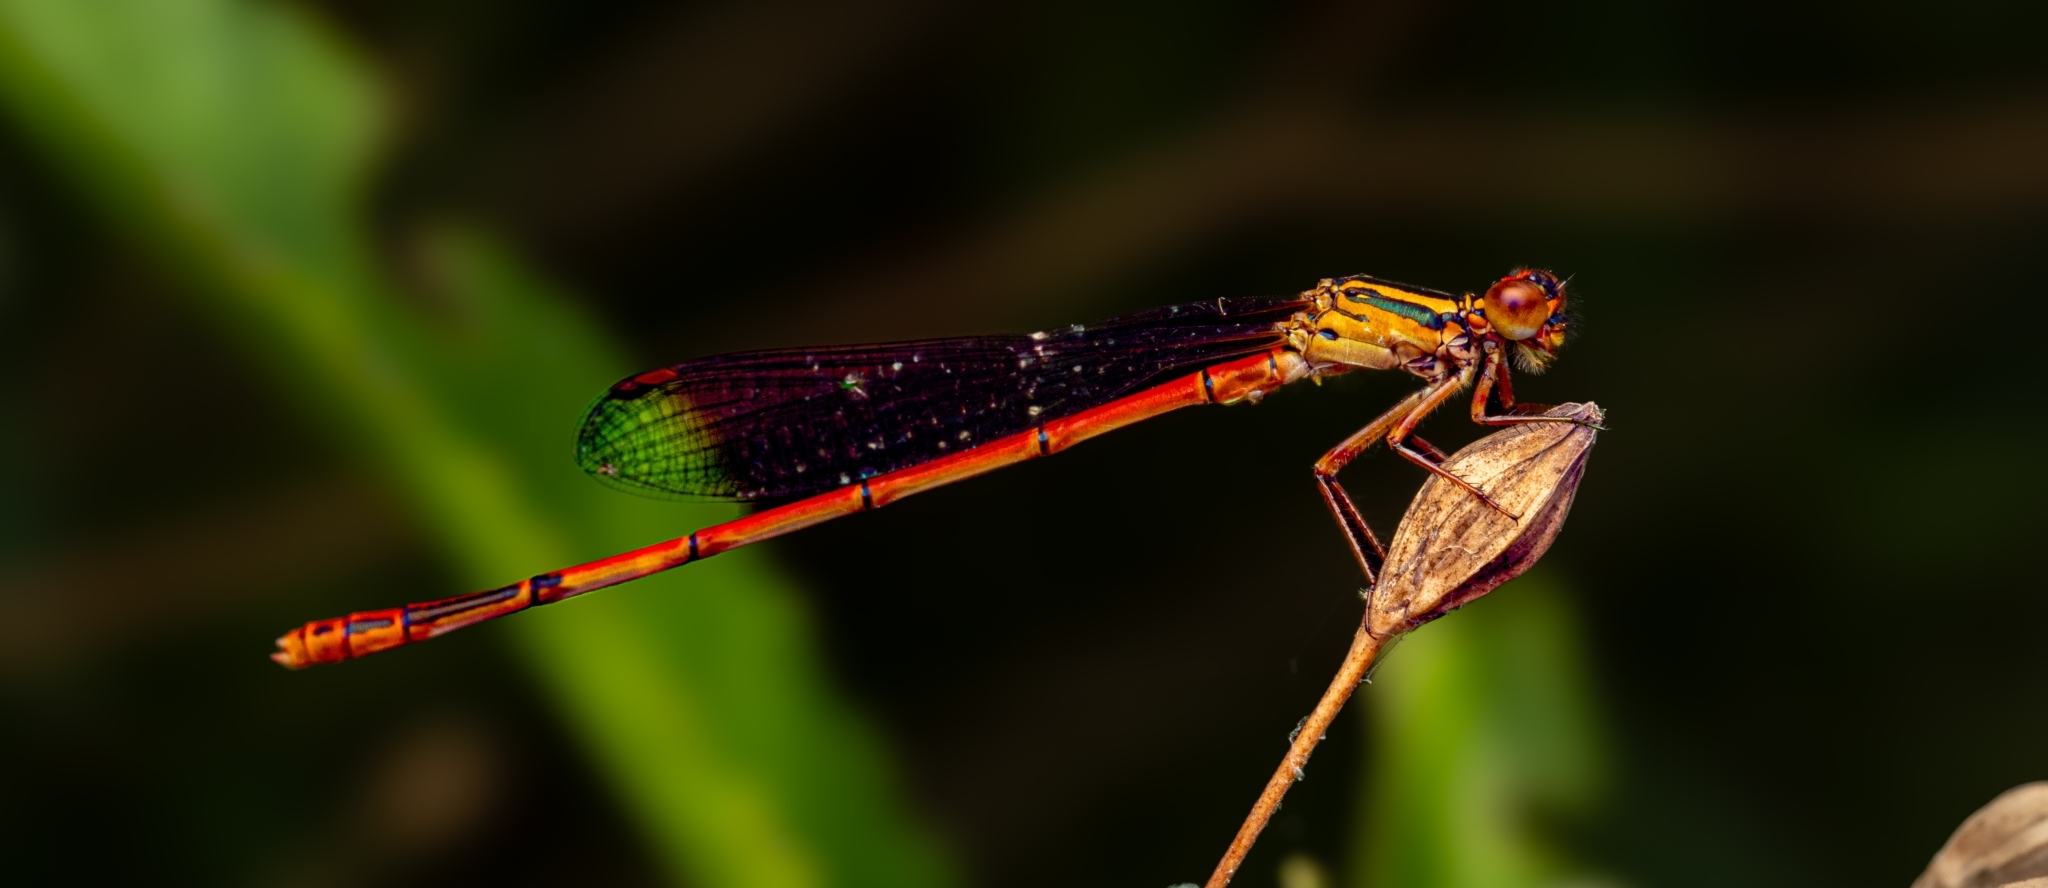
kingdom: Animalia
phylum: Arthropoda
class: Insecta
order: Odonata
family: Coenagrionidae
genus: Xanthocnemis
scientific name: Xanthocnemis zealandica
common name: Common redcoat damselfly
